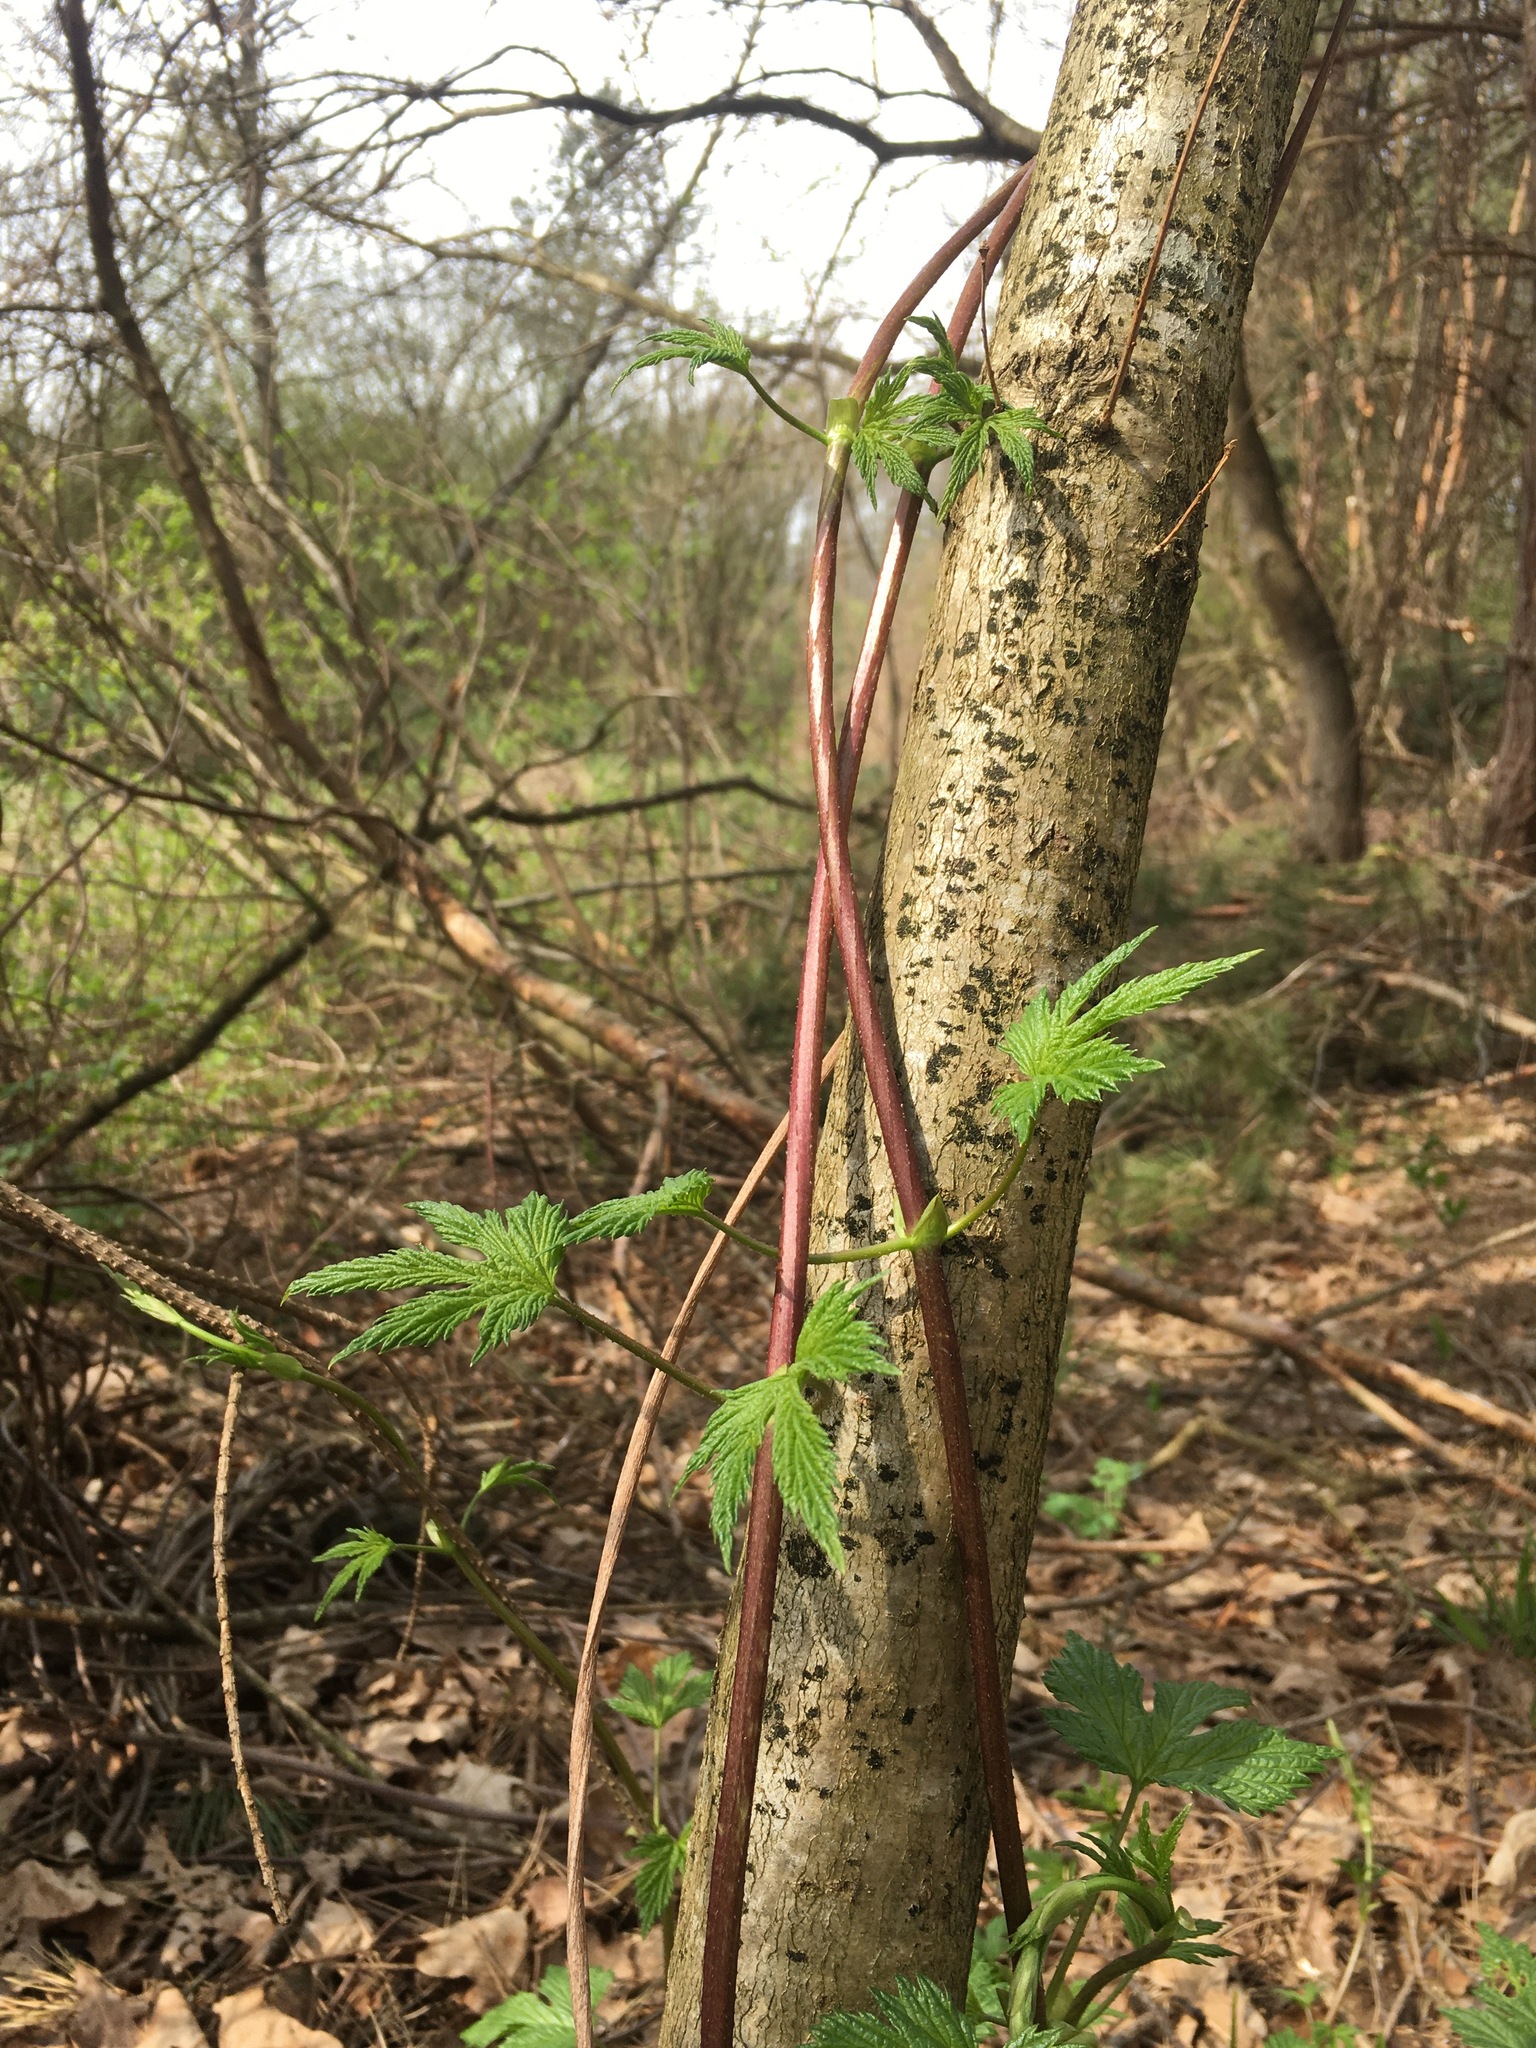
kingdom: Plantae
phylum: Tracheophyta
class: Magnoliopsida
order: Rosales
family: Cannabaceae
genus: Humulus
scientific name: Humulus lupulus
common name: Hop
